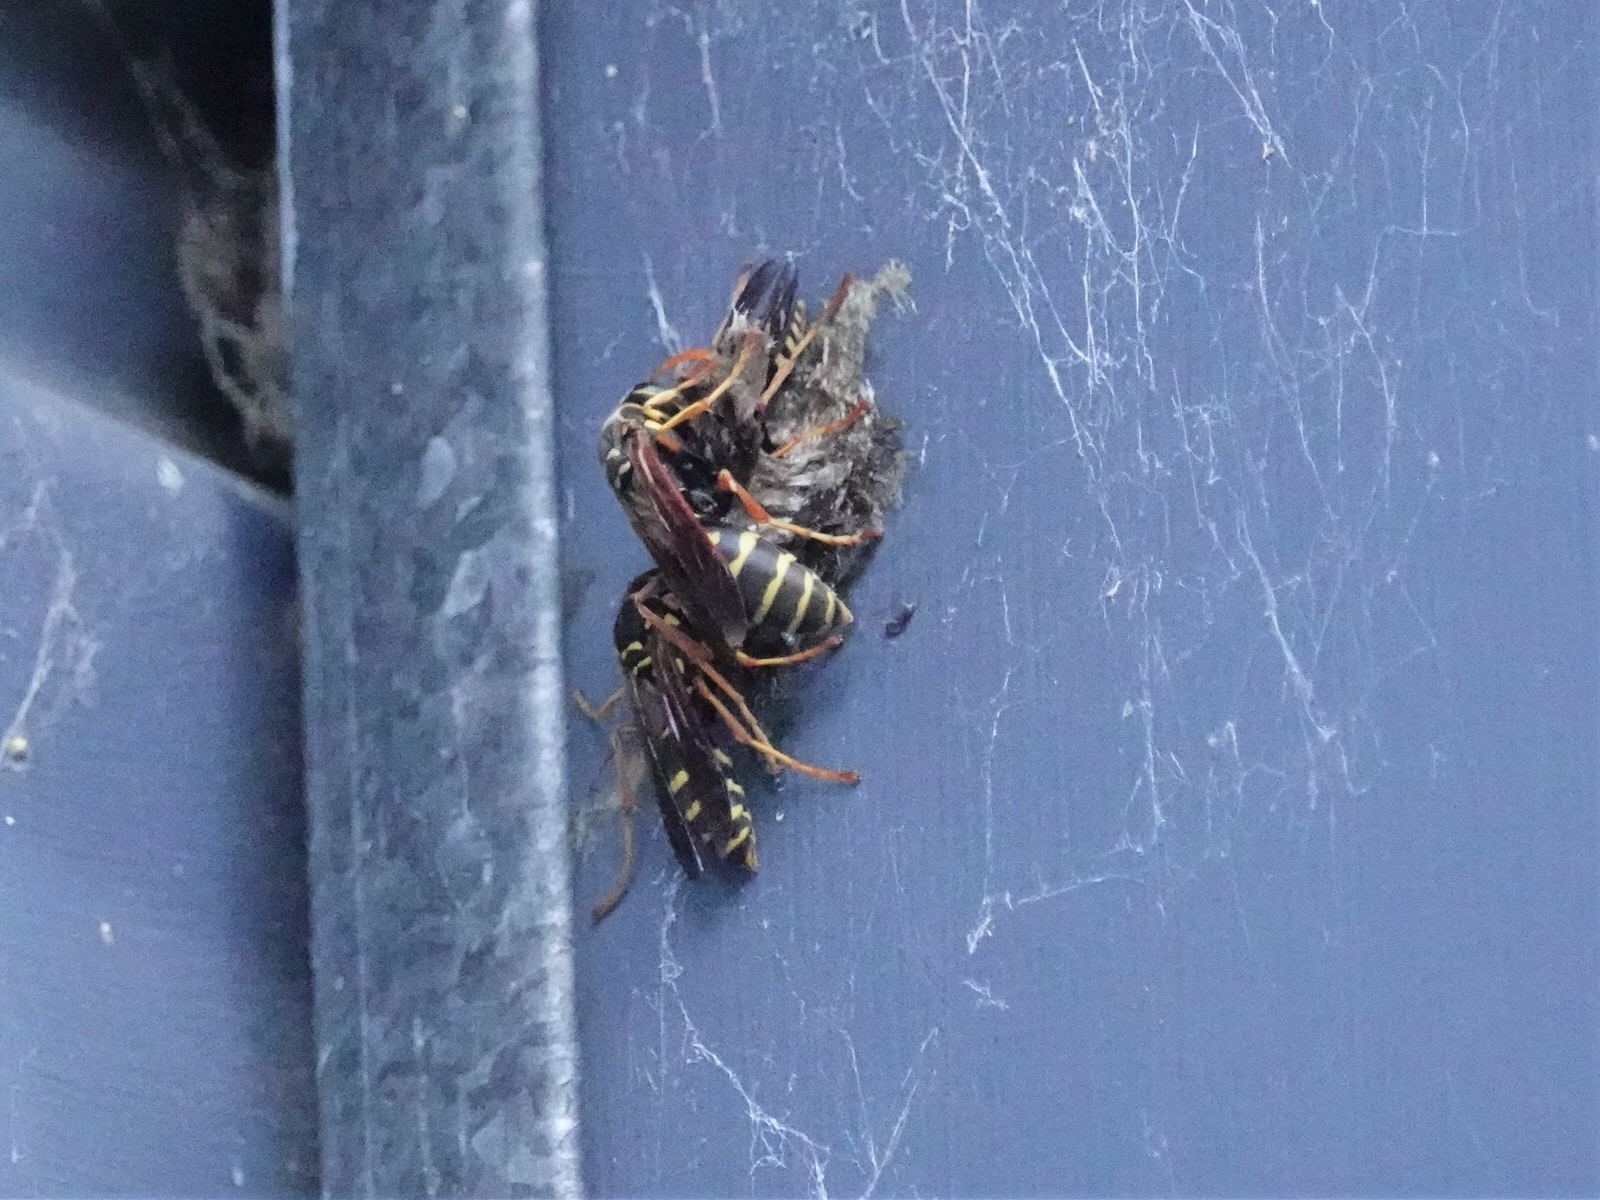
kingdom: Animalia
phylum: Arthropoda
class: Insecta
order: Hymenoptera
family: Eumenidae
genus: Polistes
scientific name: Polistes chinensis
